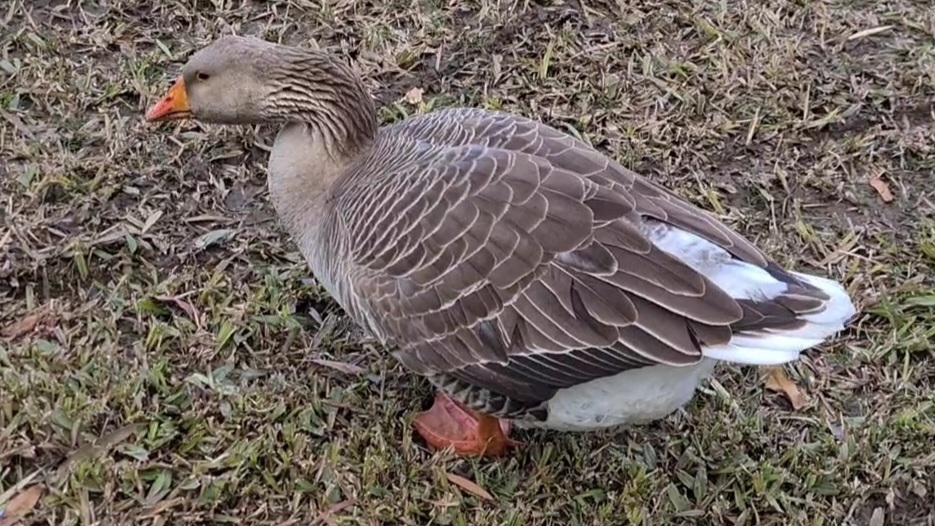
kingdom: Animalia
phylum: Chordata
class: Aves
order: Anseriformes
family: Anatidae
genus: Anser
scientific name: Anser anser
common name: Greylag goose
